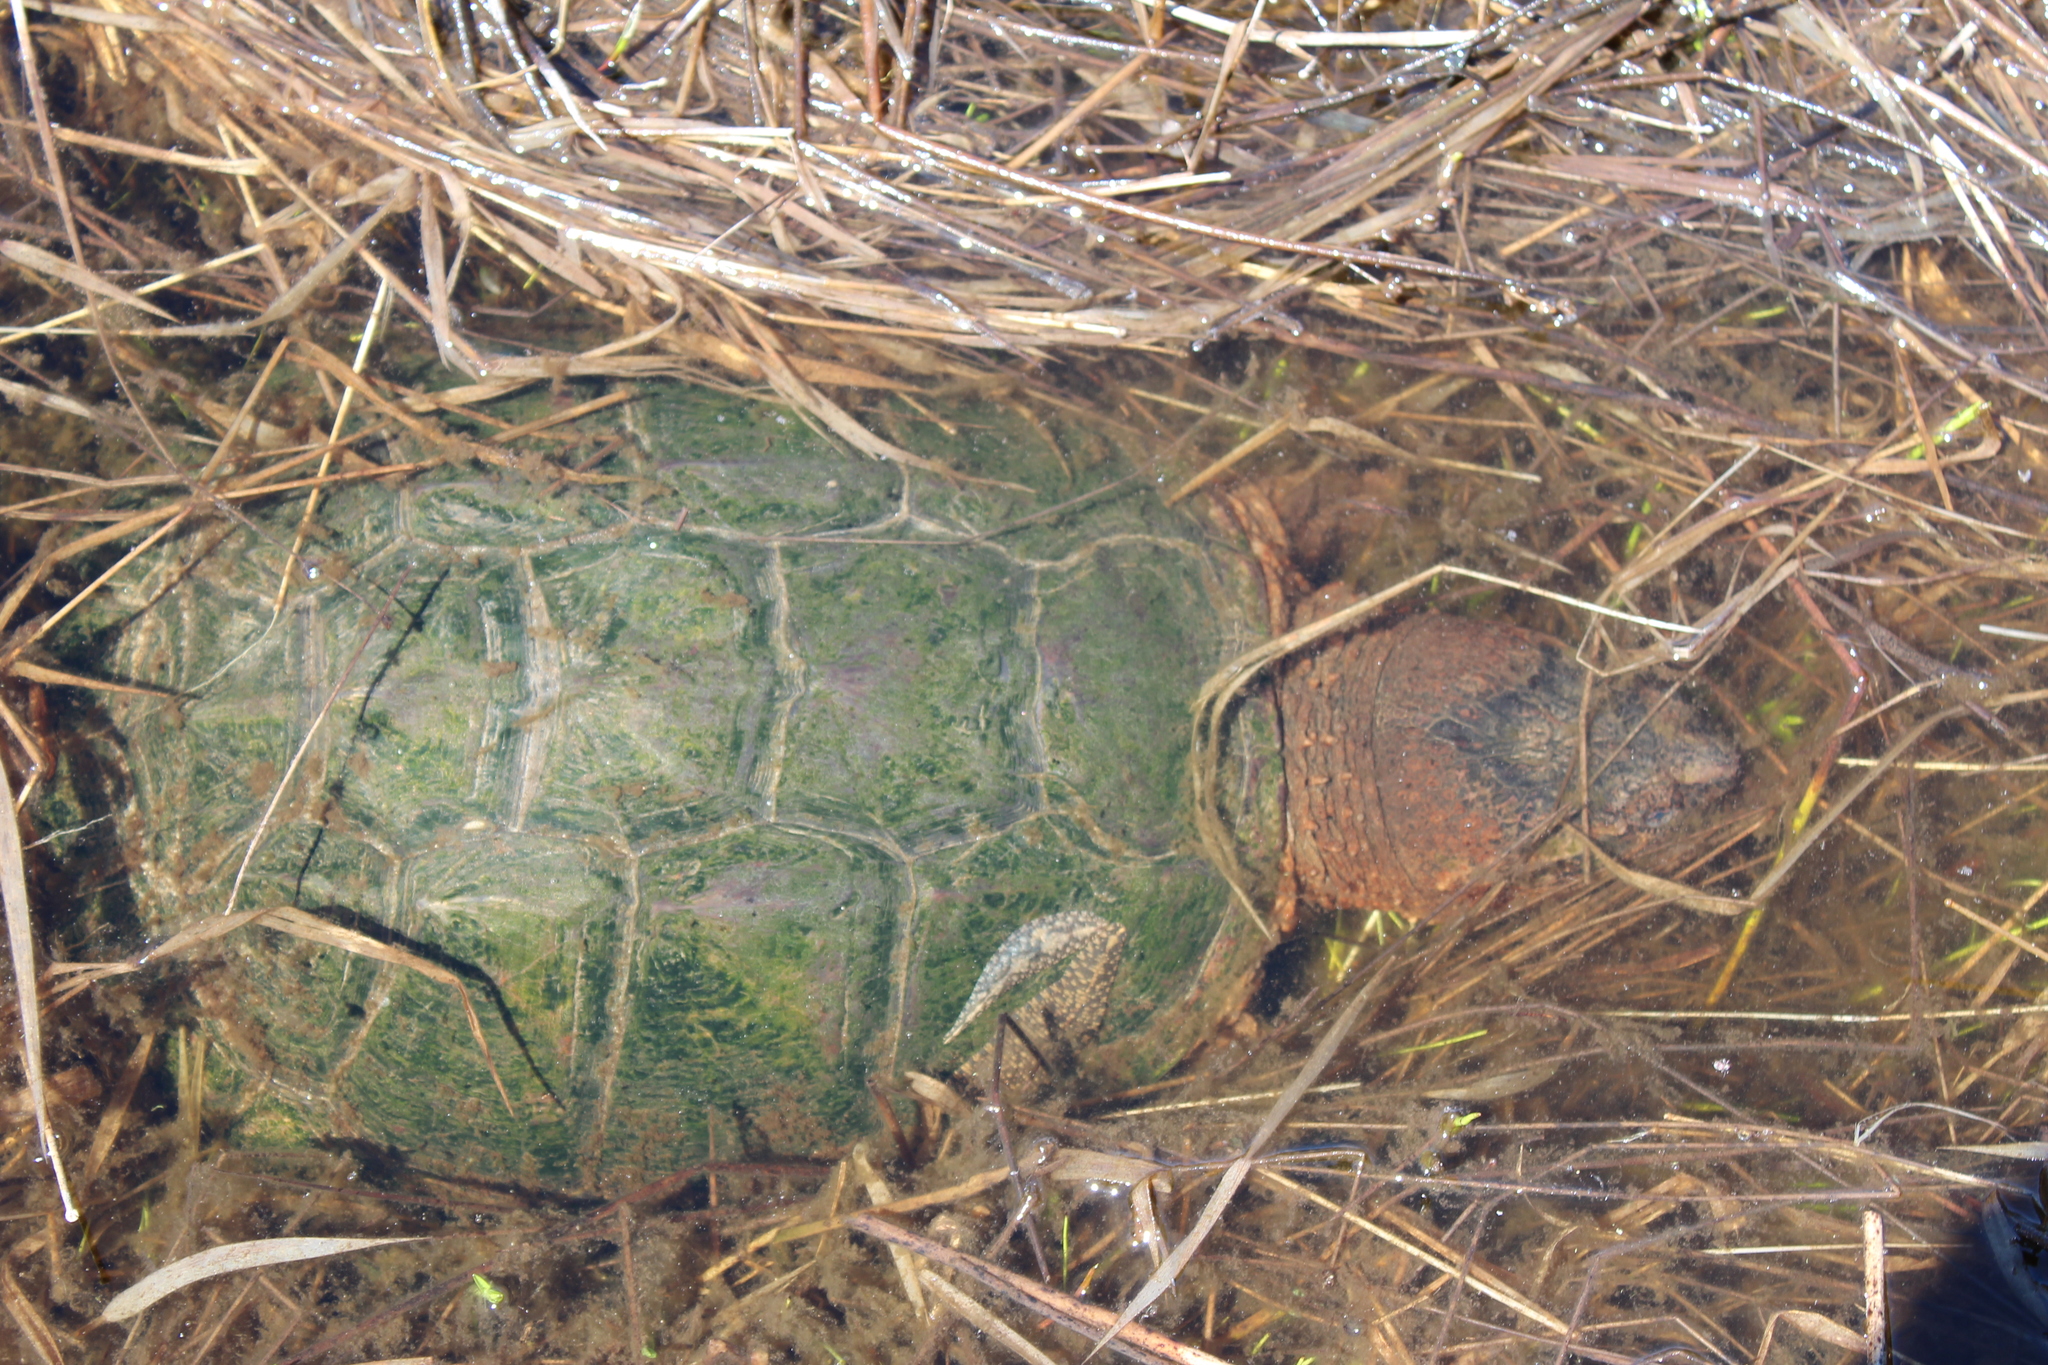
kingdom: Animalia
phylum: Chordata
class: Testudines
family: Chelydridae
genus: Chelydra
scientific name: Chelydra serpentina
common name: Common snapping turtle
